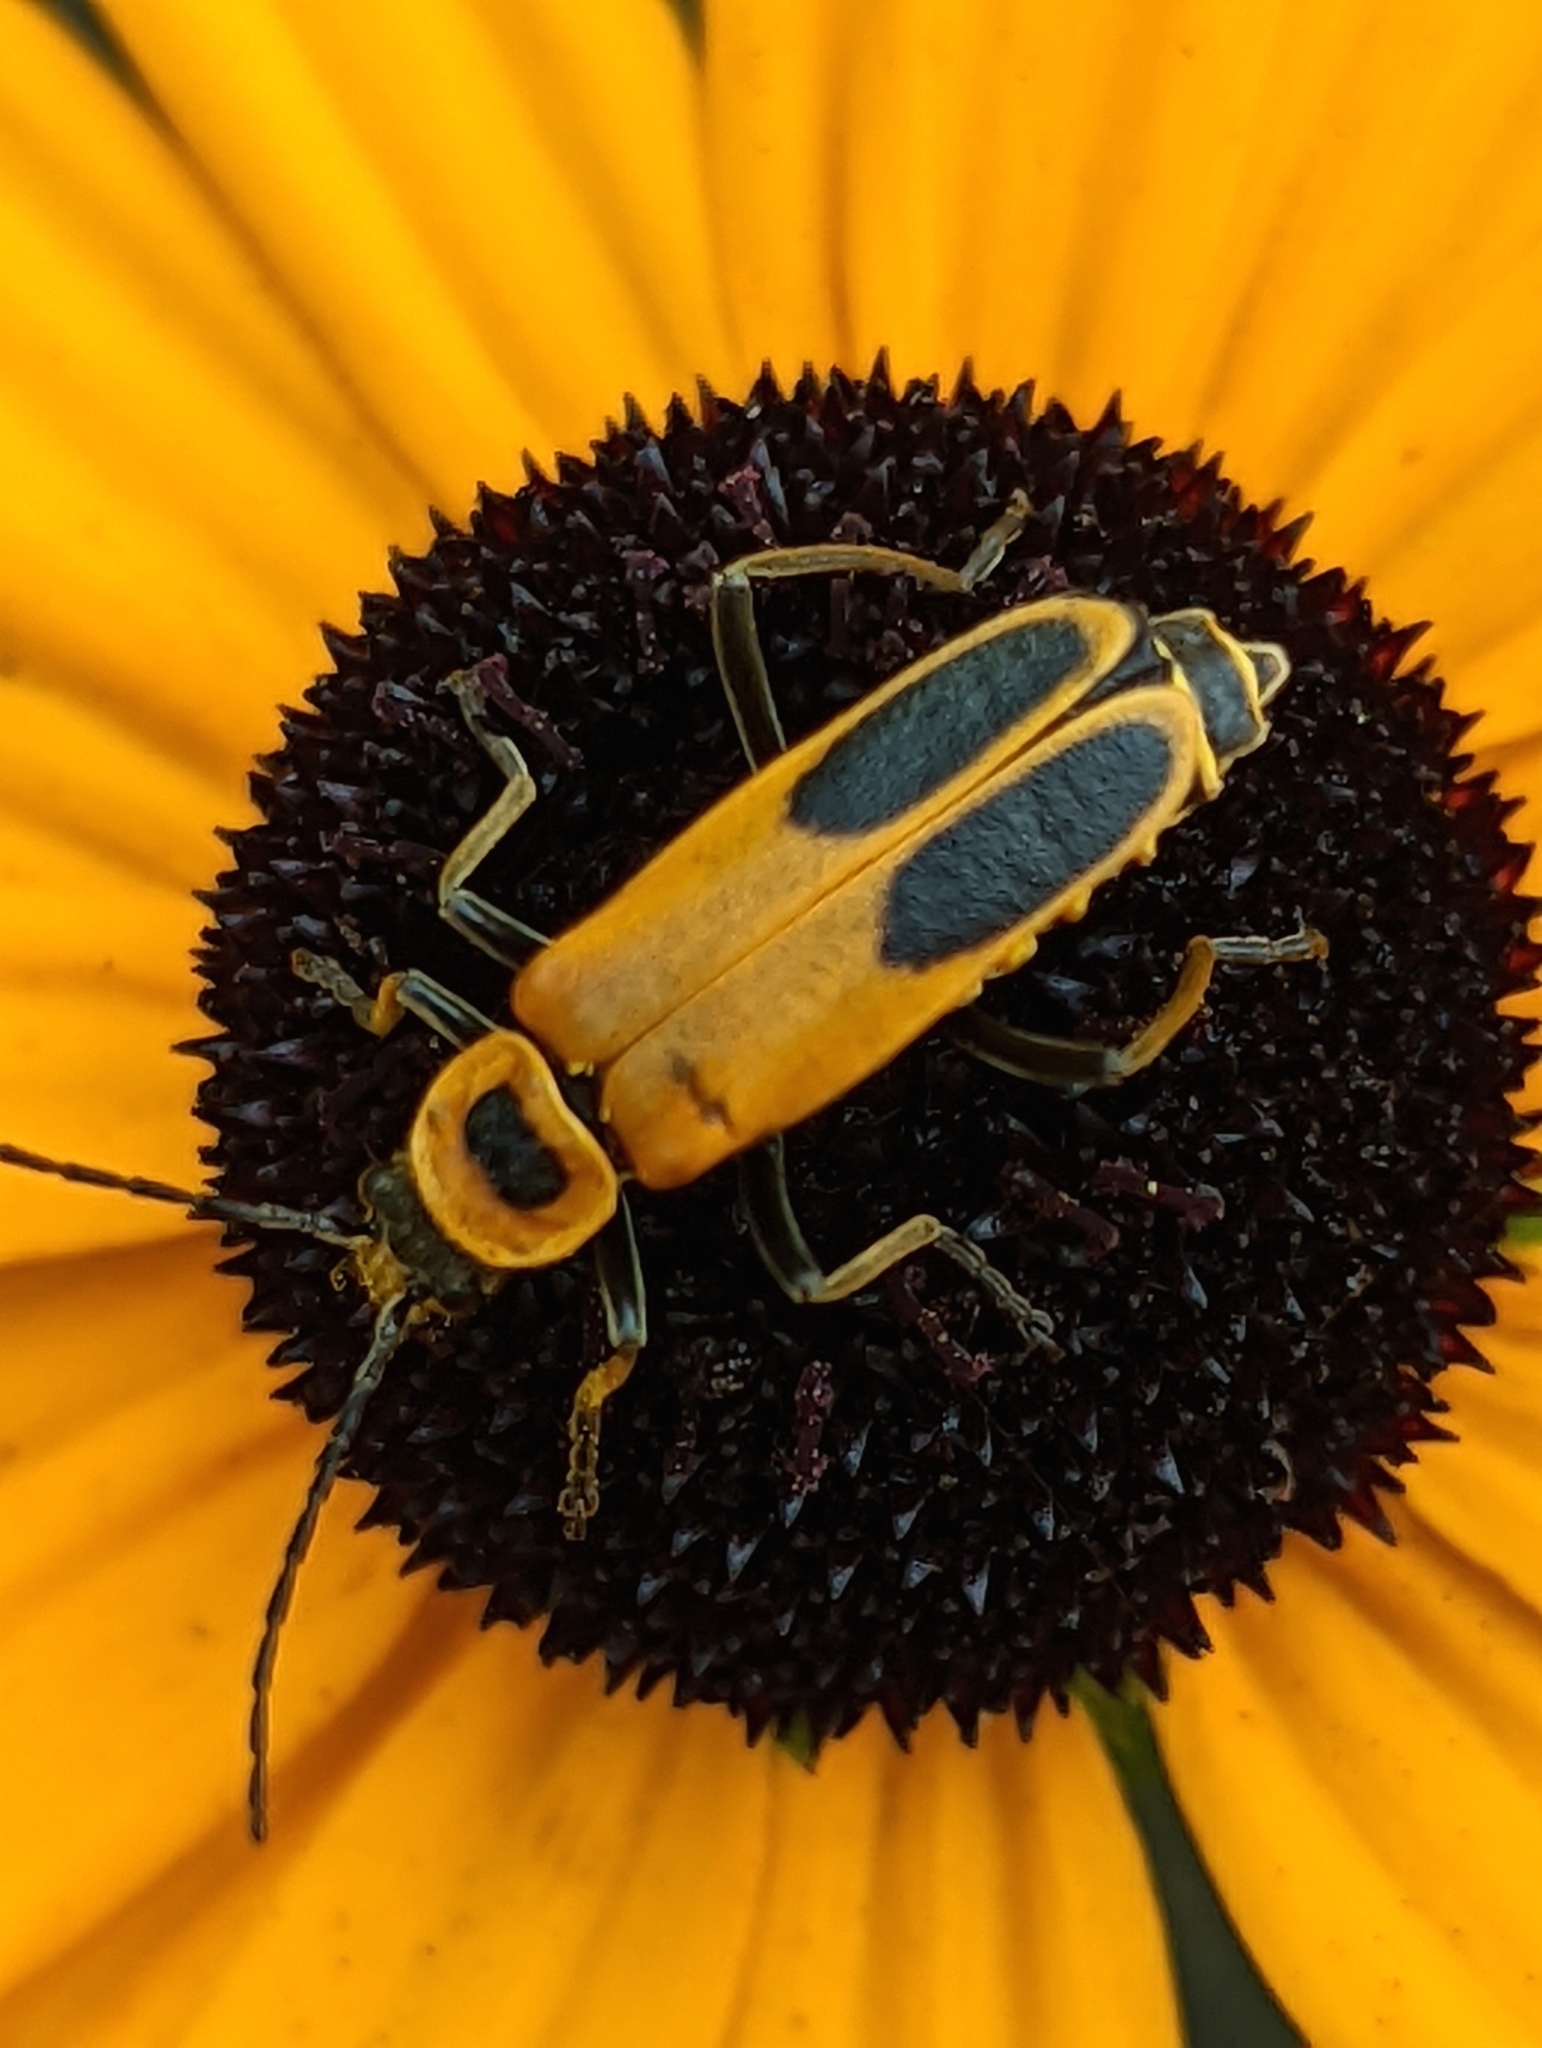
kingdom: Animalia
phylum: Arthropoda
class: Insecta
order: Coleoptera
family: Cantharidae
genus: Chauliognathus
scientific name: Chauliognathus pensylvanicus
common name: Goldenrod soldier beetle
